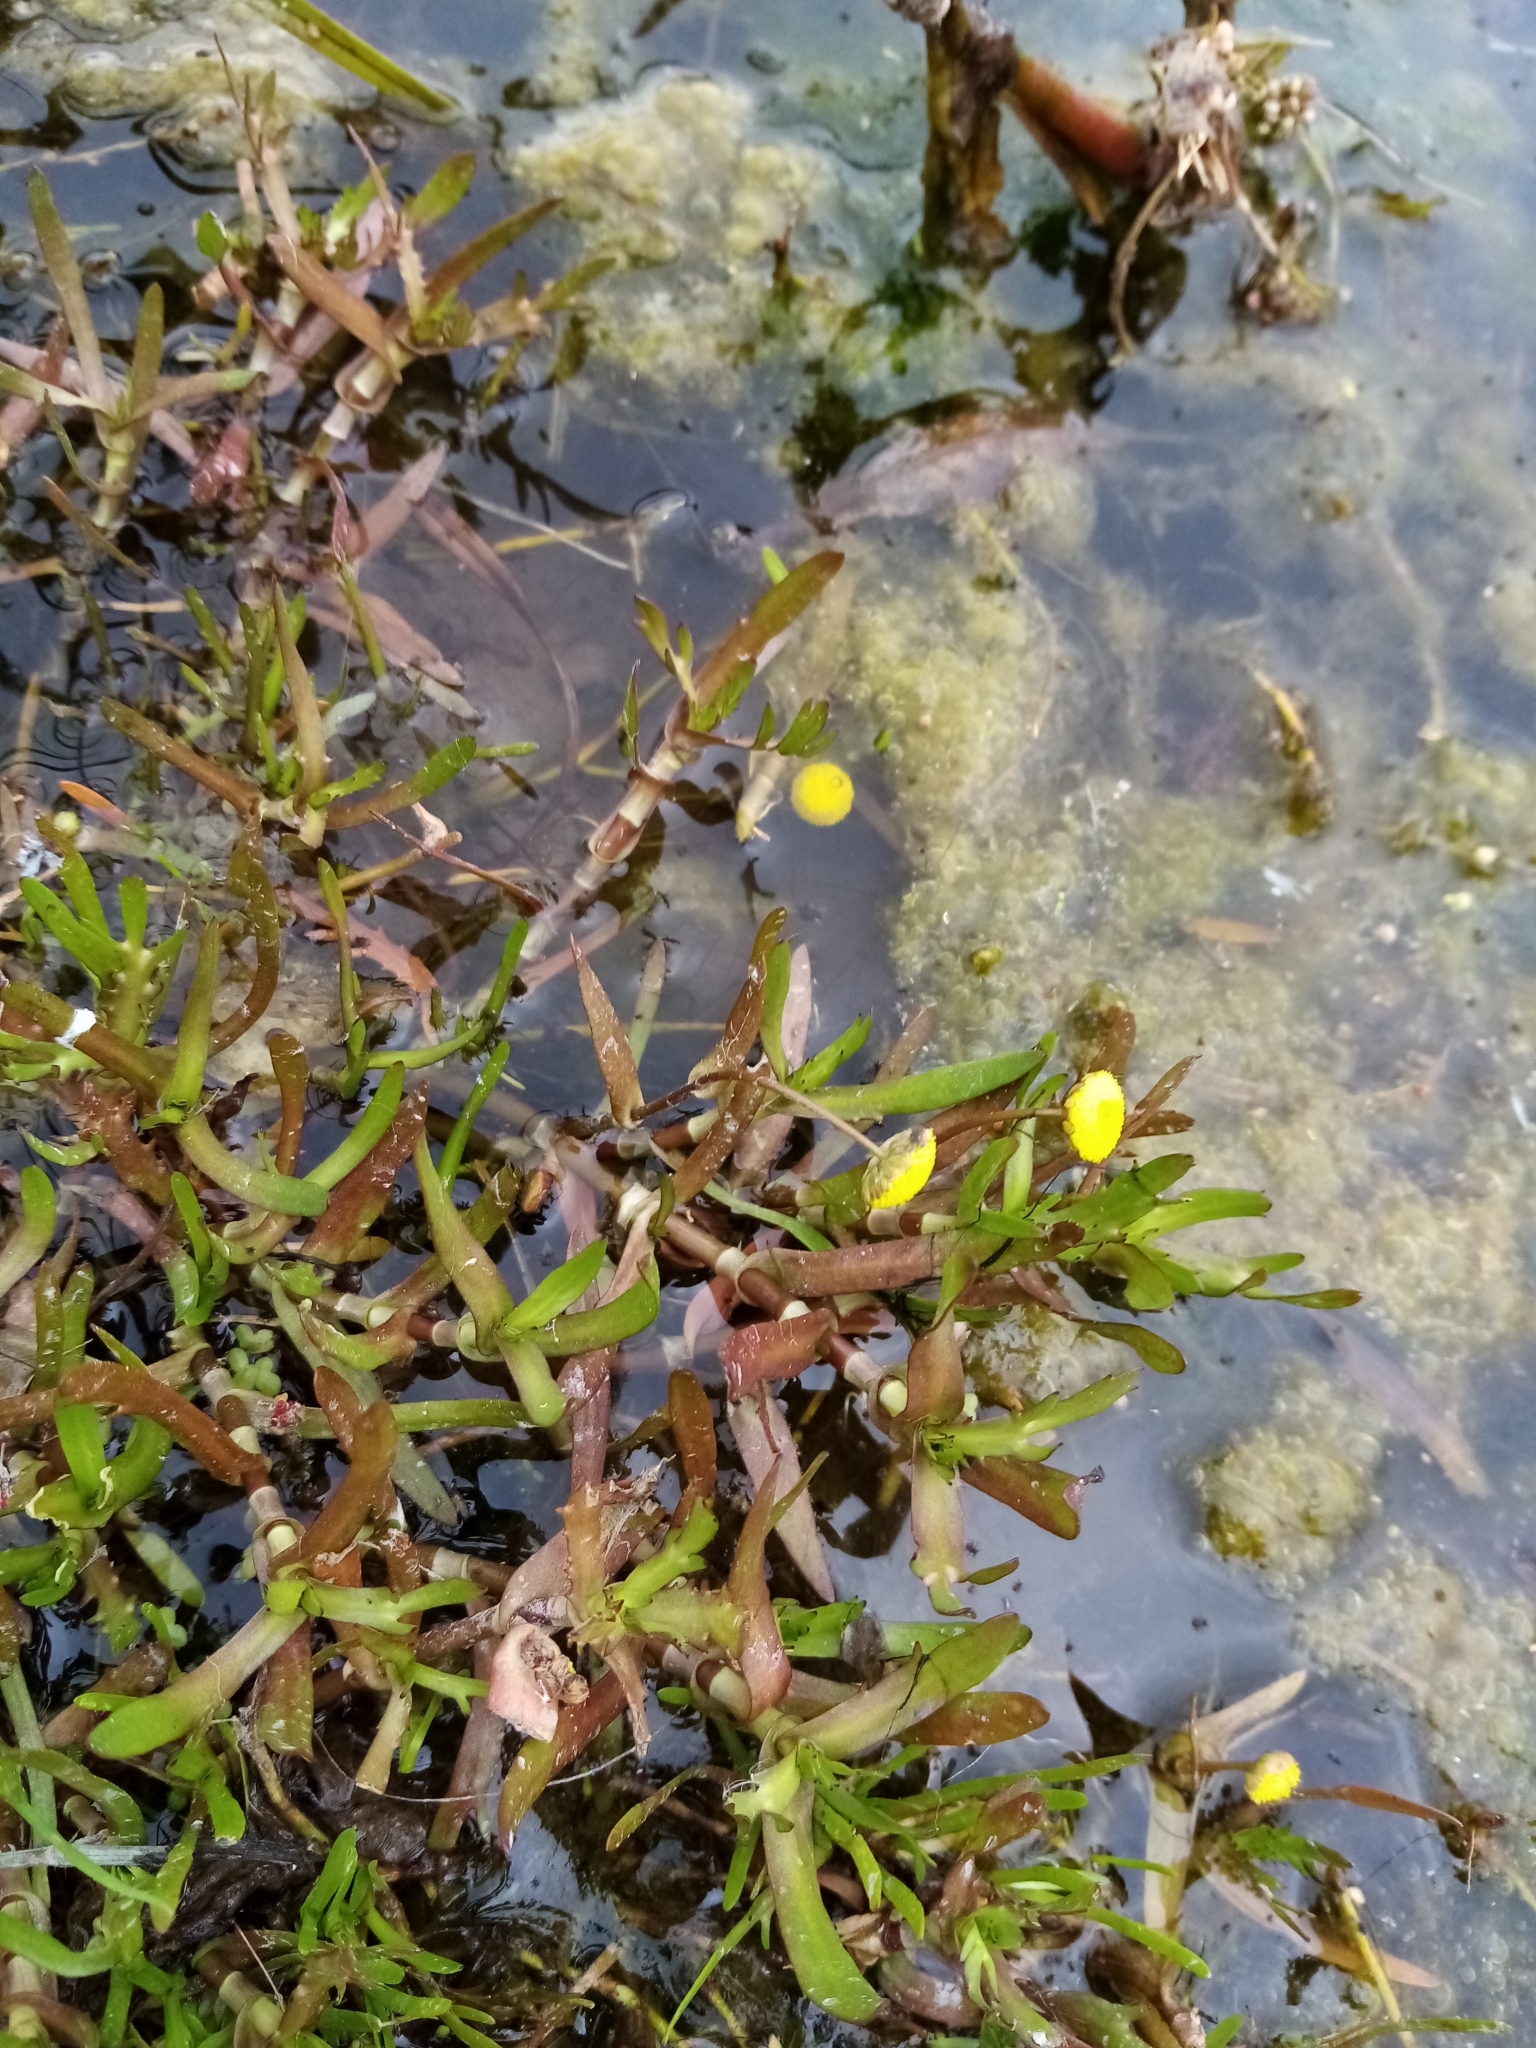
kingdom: Plantae
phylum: Tracheophyta
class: Magnoliopsida
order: Asterales
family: Asteraceae
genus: Cotula
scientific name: Cotula coronopifolia
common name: Buttonweed
